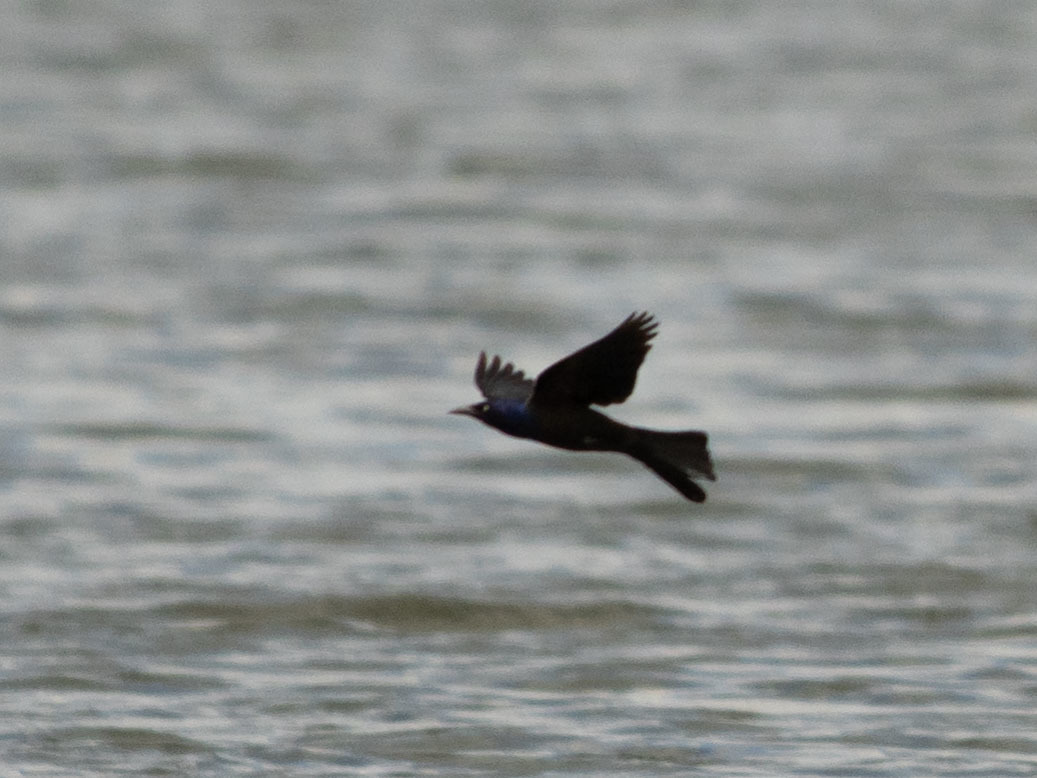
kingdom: Animalia
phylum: Chordata
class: Aves
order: Passeriformes
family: Icteridae
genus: Quiscalus
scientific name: Quiscalus quiscula
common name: Common grackle
